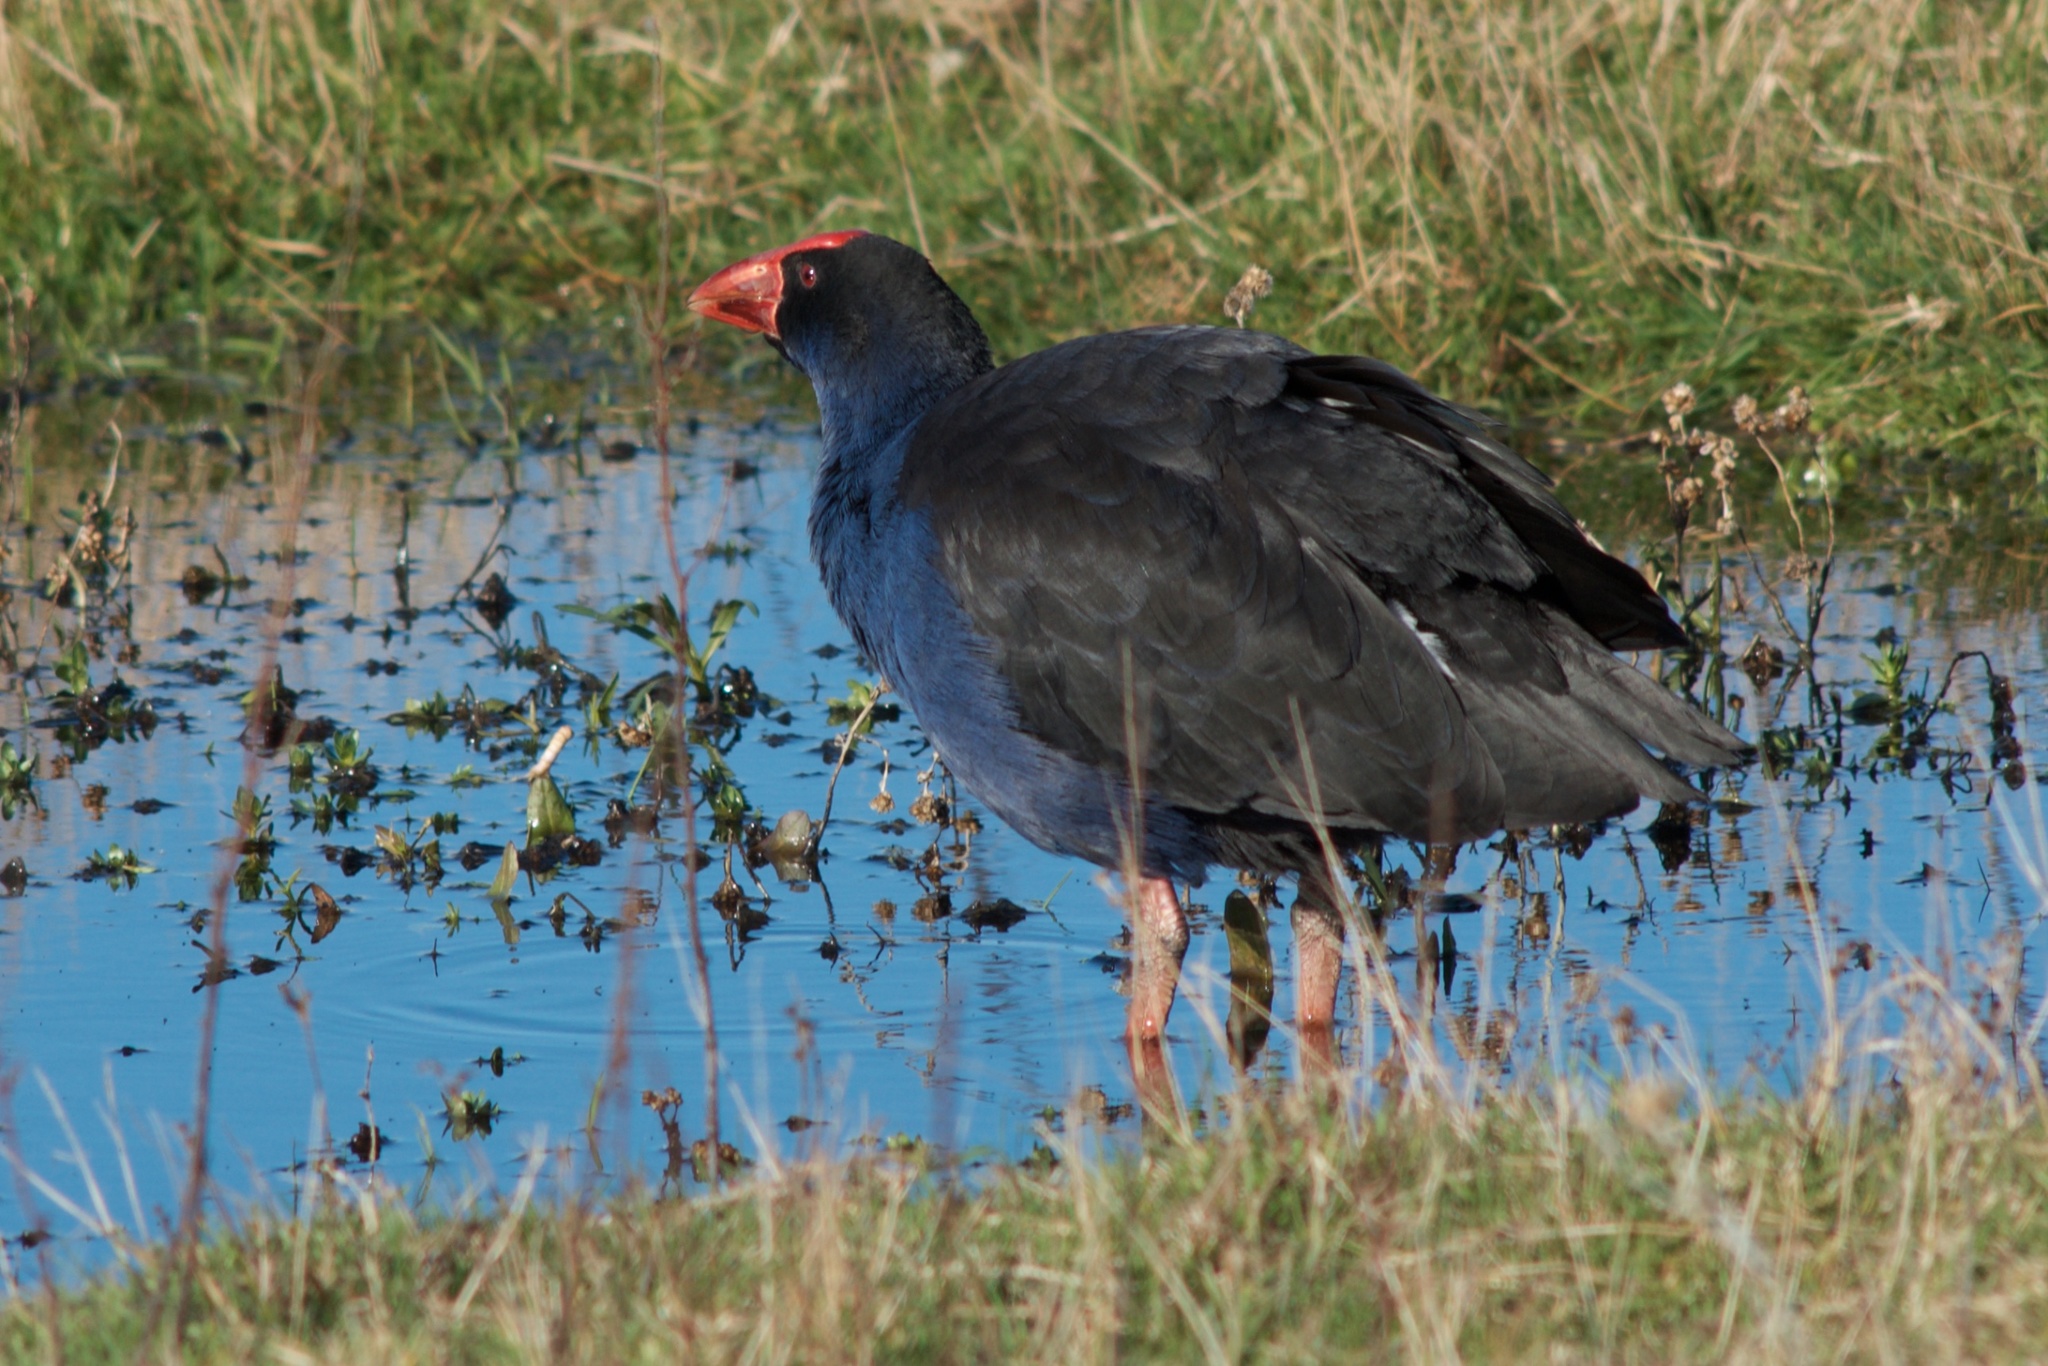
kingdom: Animalia
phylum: Chordata
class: Aves
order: Gruiformes
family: Rallidae
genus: Porphyrio
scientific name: Porphyrio melanotus
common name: Australasian swamphen
